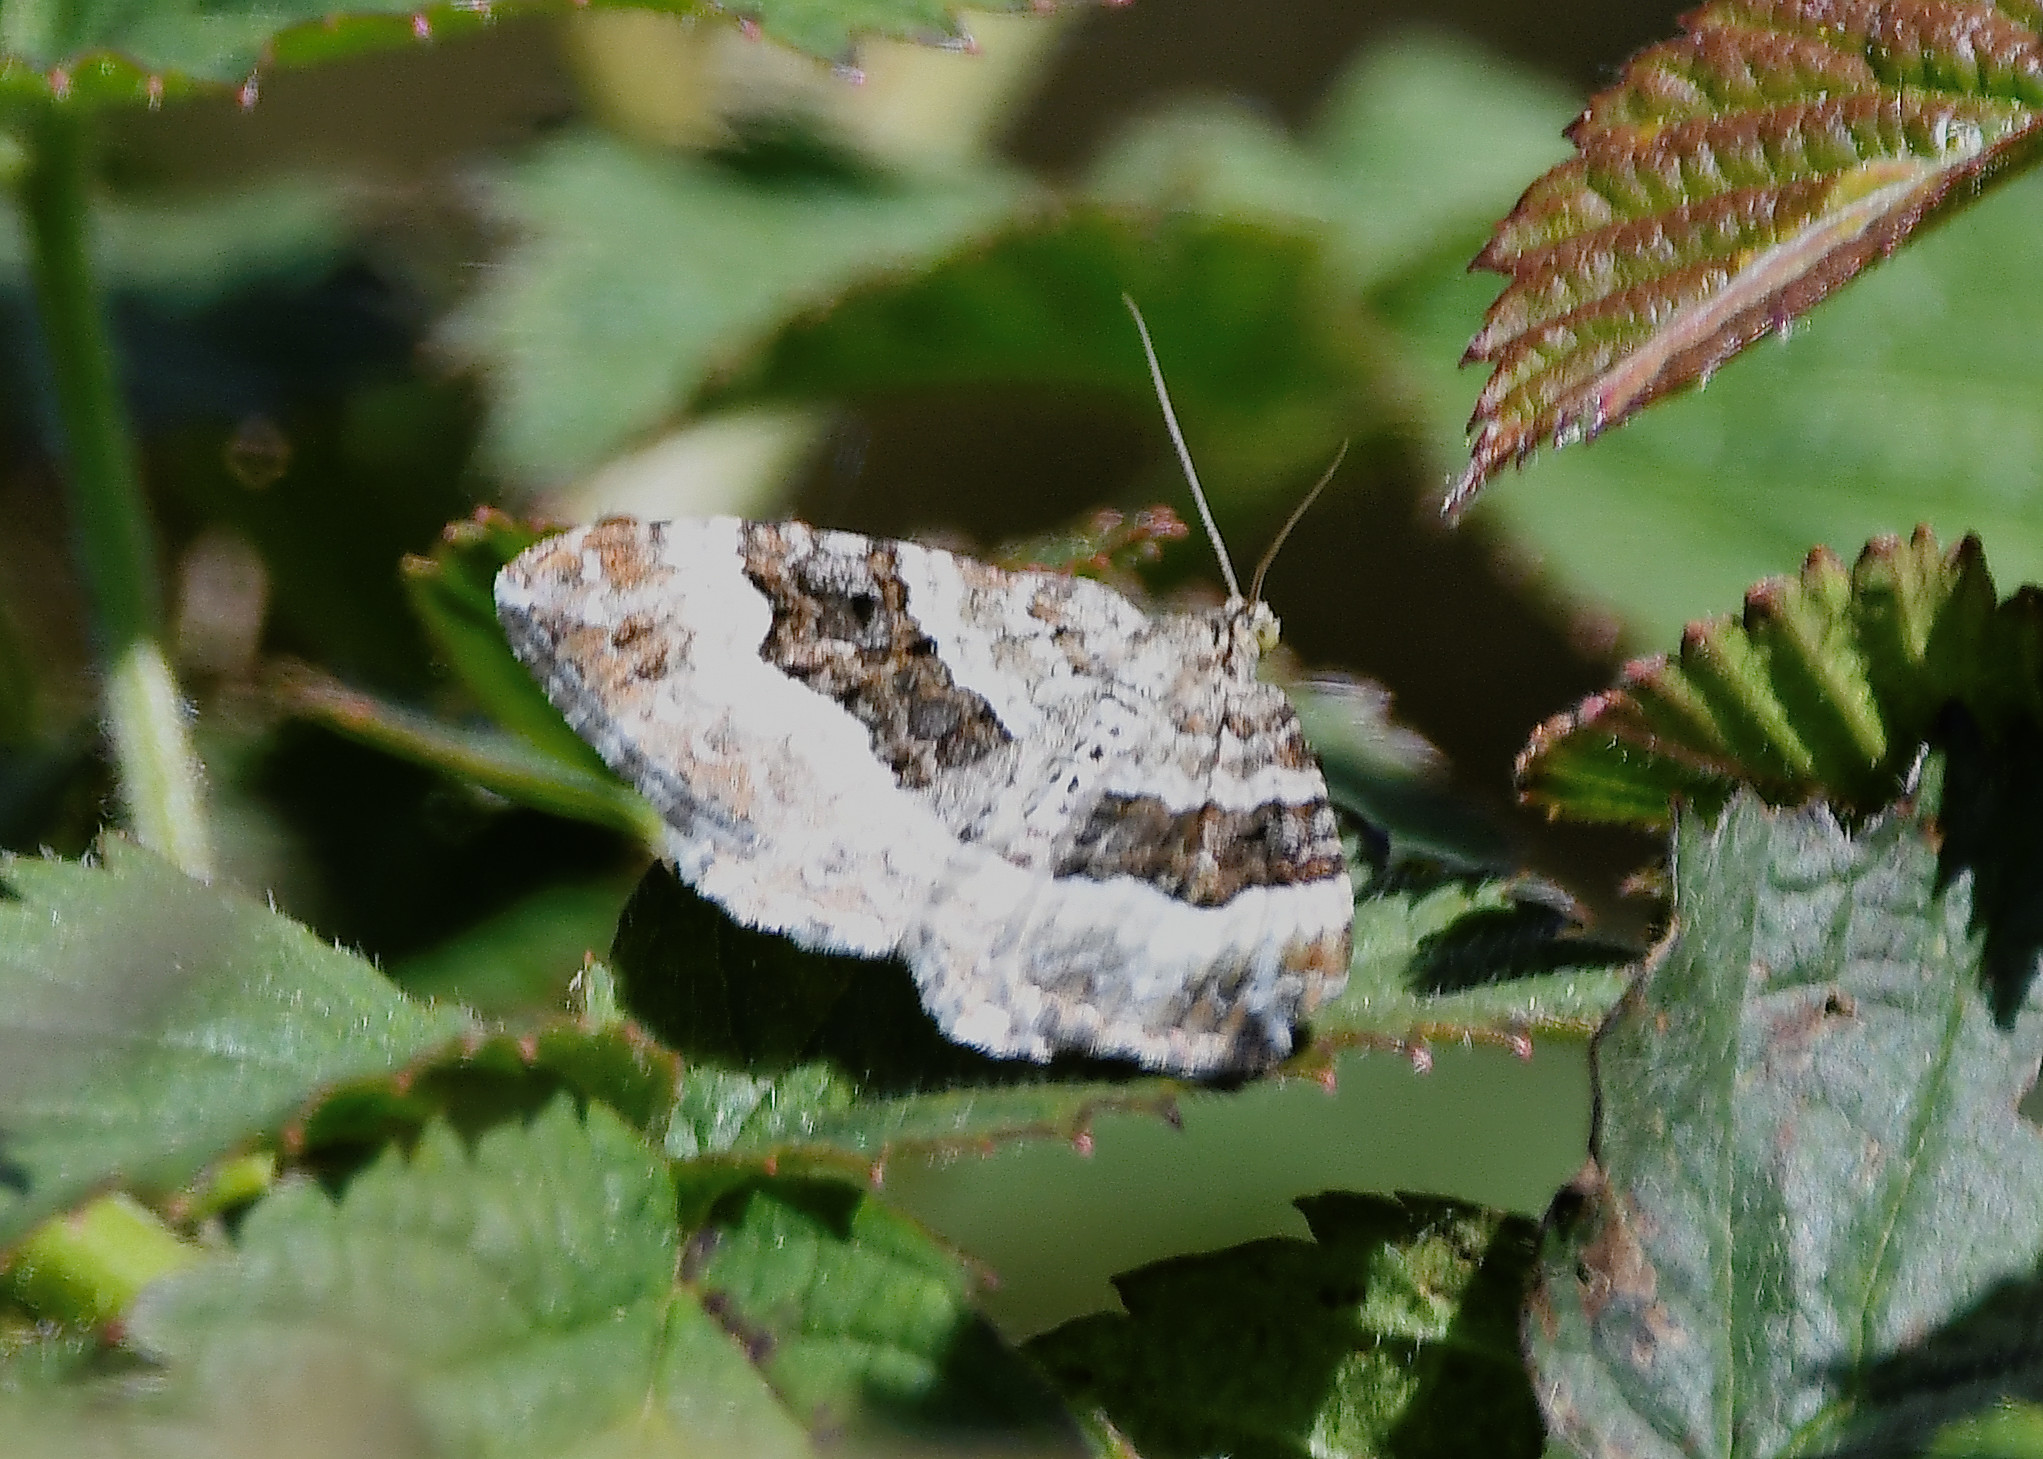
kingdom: Animalia
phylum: Arthropoda
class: Insecta
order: Lepidoptera
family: Geometridae
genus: Epirrhoe
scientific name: Epirrhoe alternata
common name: Common carpet
